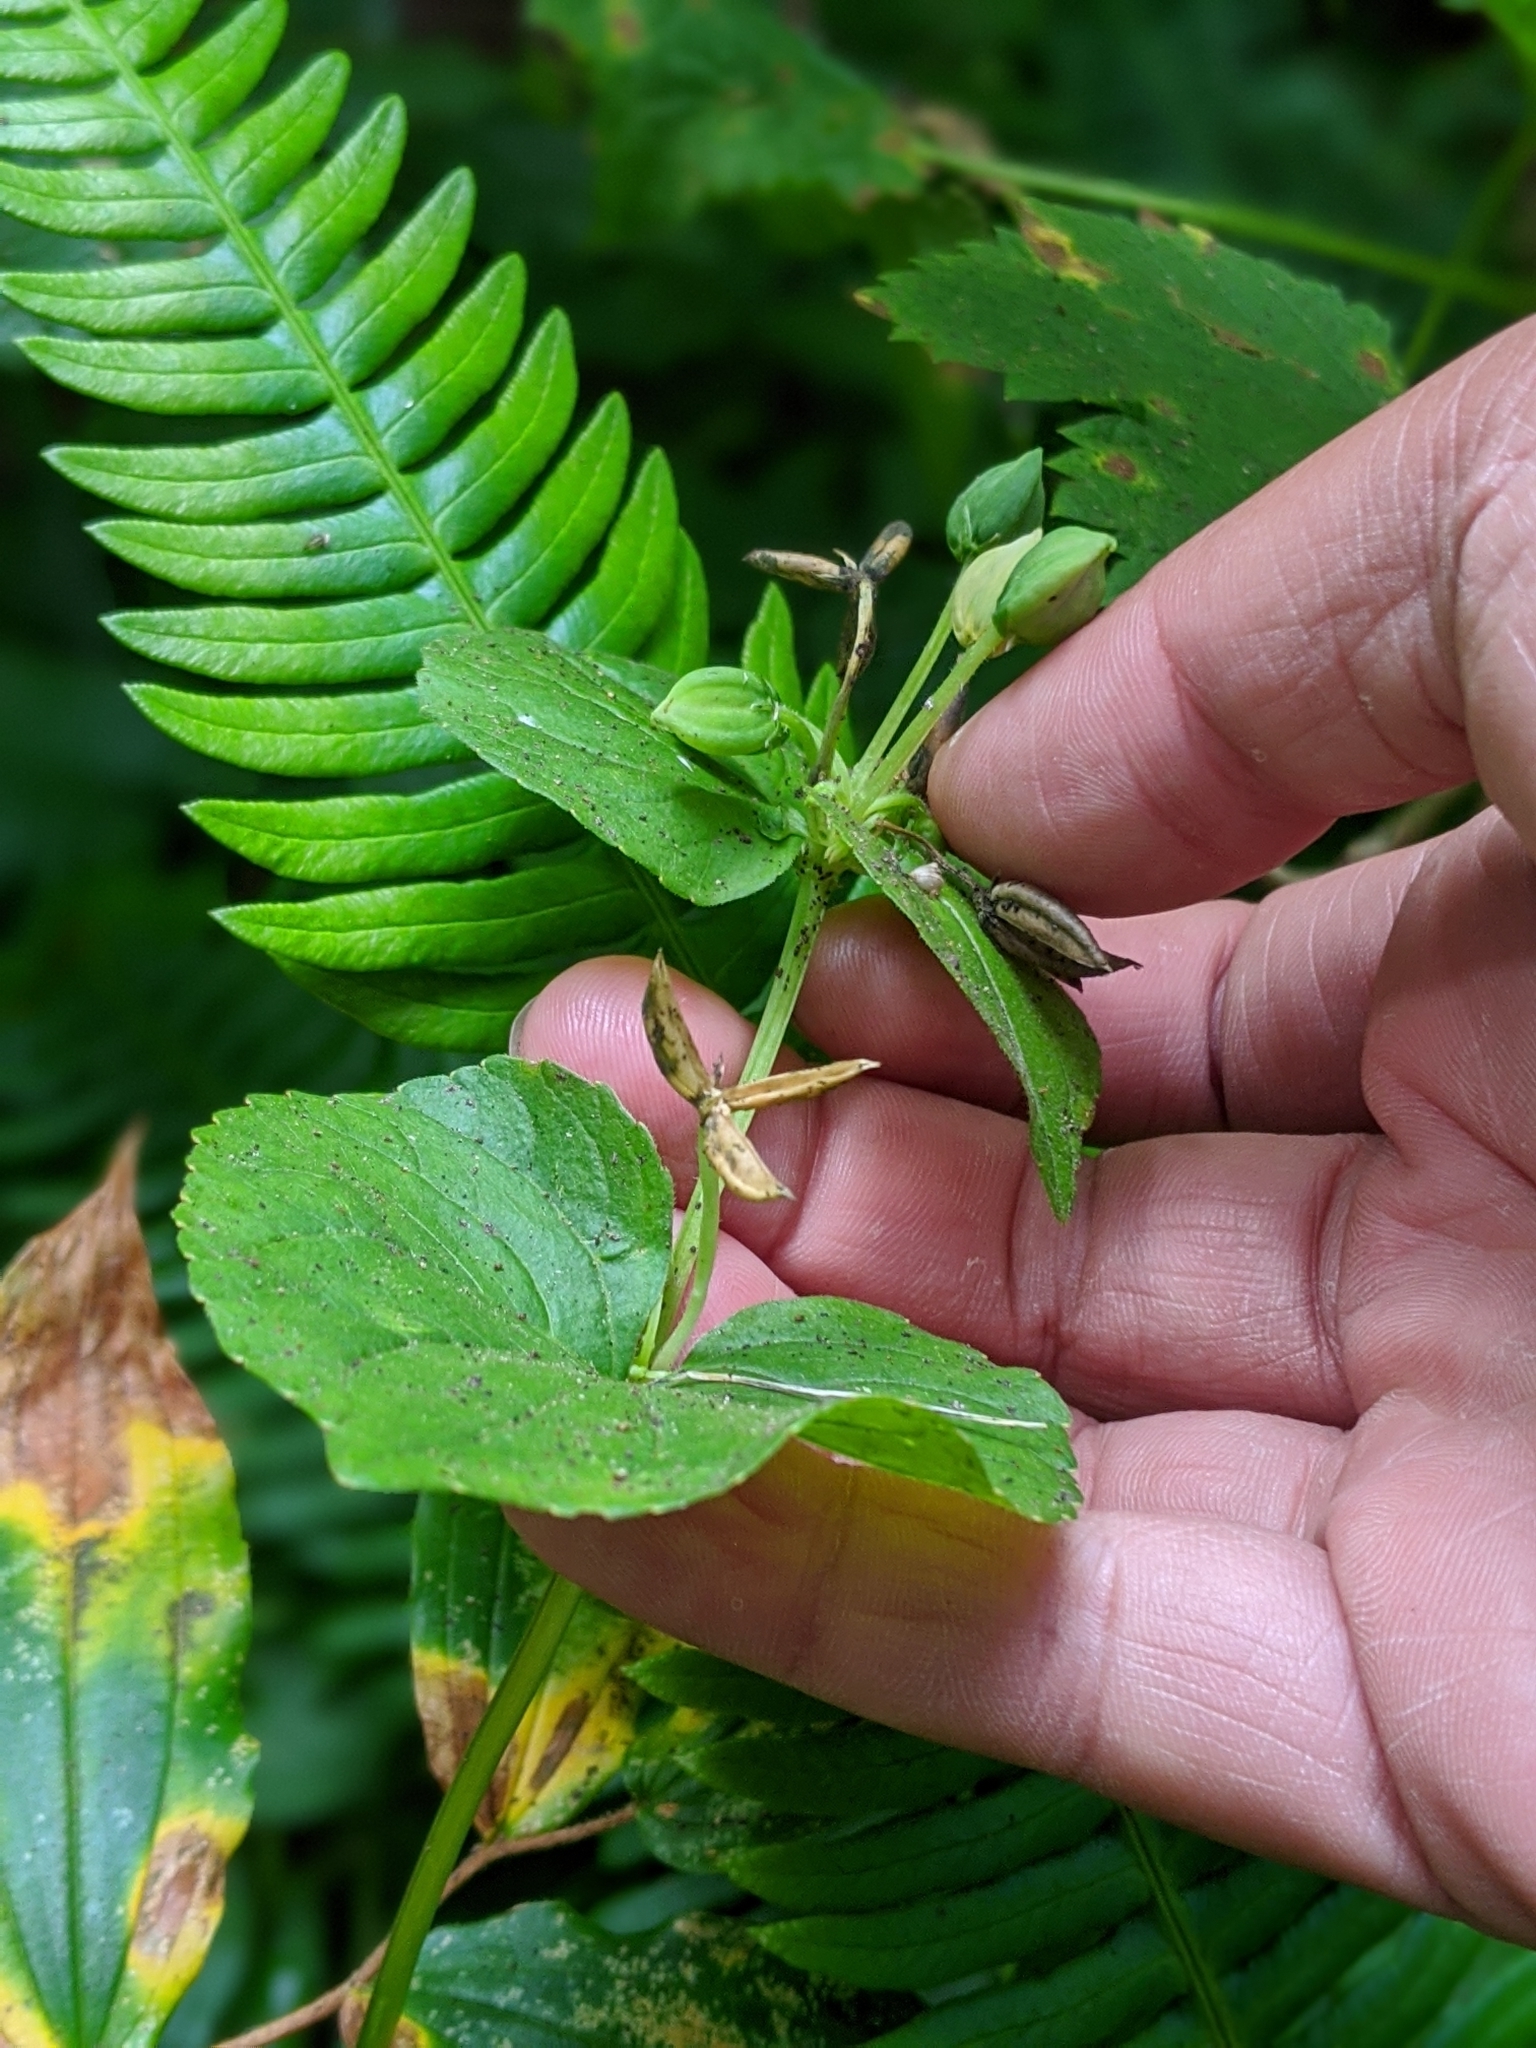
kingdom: Plantae
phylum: Tracheophyta
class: Magnoliopsida
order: Malpighiales
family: Violaceae
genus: Viola
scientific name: Viola glabella
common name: Stream violet
